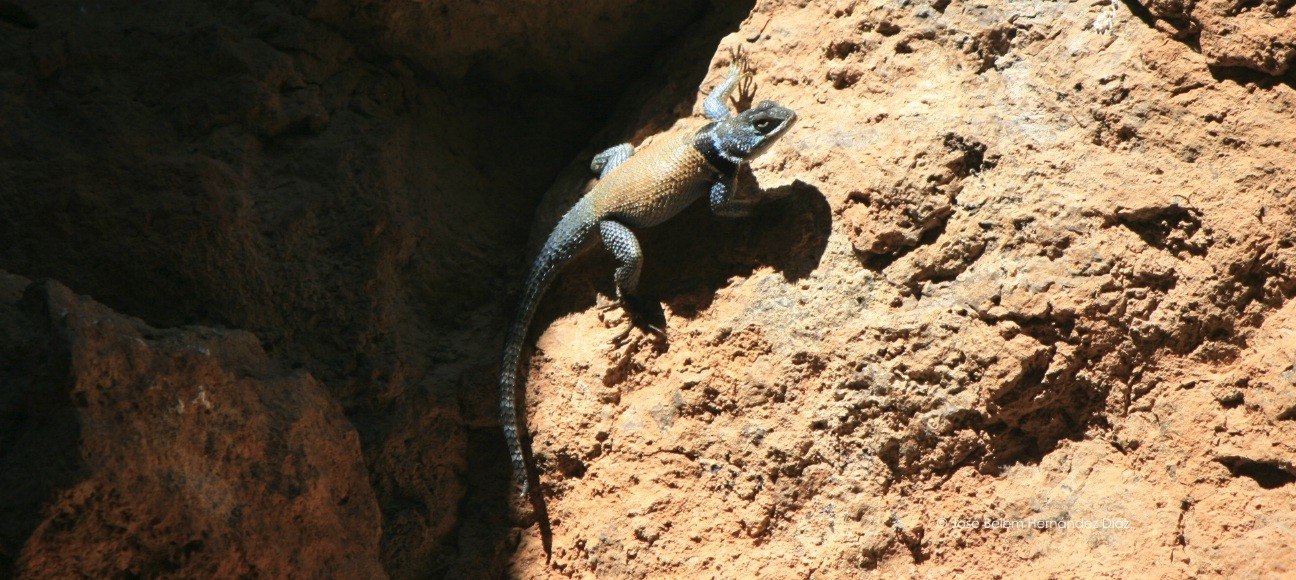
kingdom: Animalia
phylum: Chordata
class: Squamata
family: Phrynosomatidae
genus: Sceloporus
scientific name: Sceloporus minor
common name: Minor lizard
